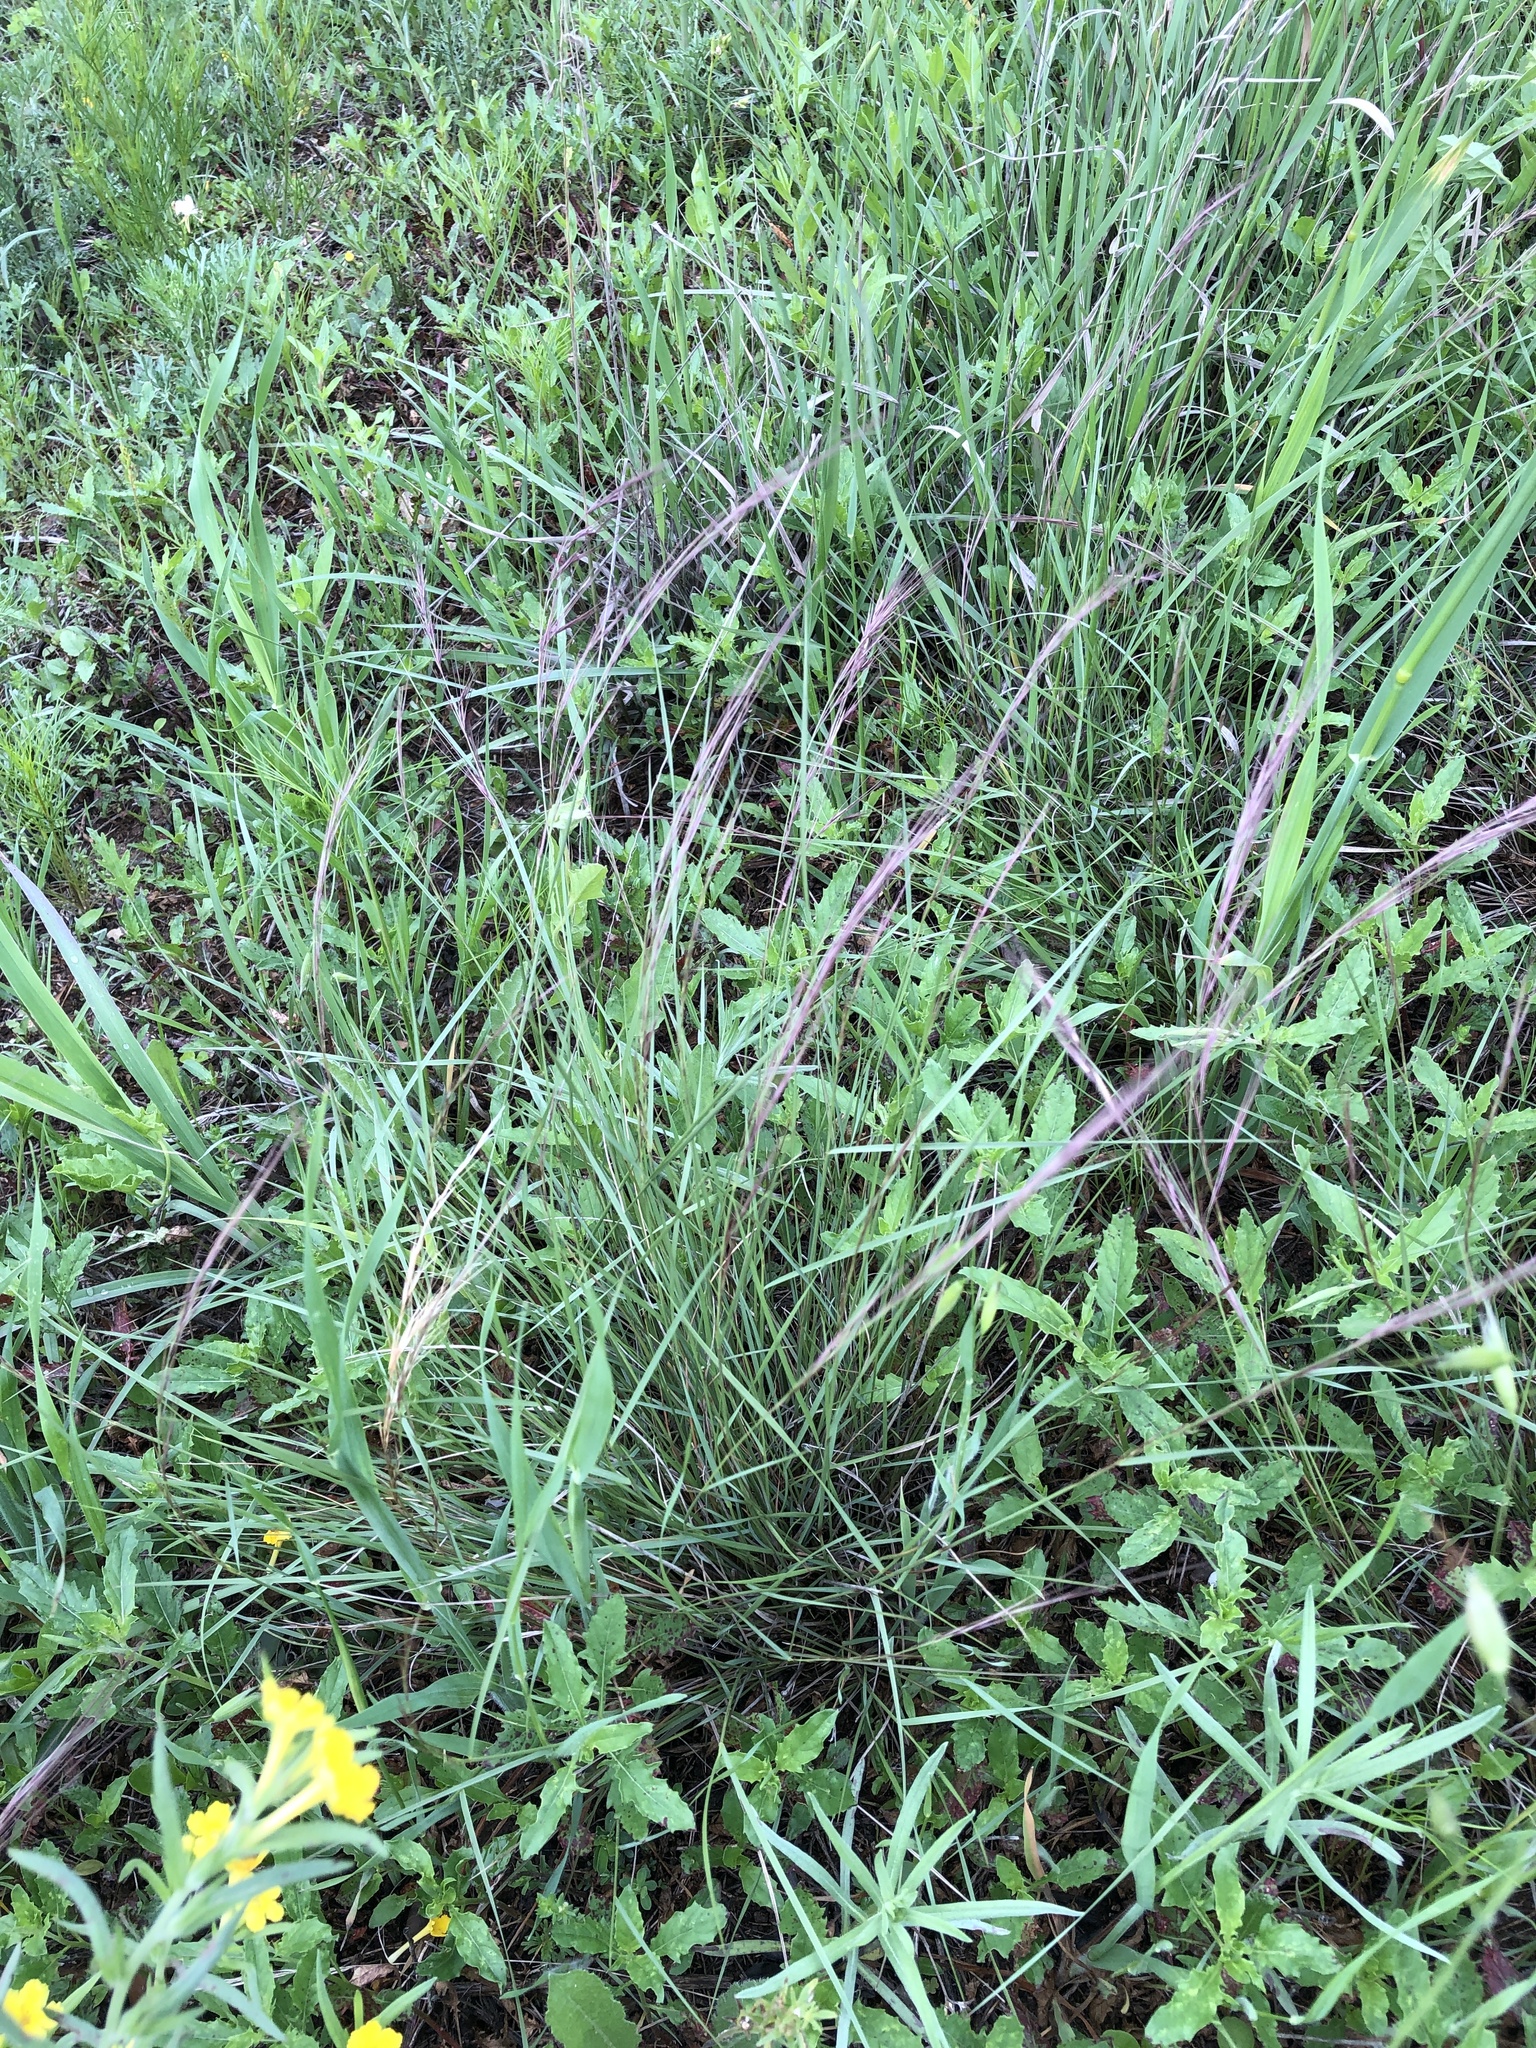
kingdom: Plantae
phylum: Tracheophyta
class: Liliopsida
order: Poales
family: Poaceae
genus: Aristida
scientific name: Aristida purpurea
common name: Purple threeawn
